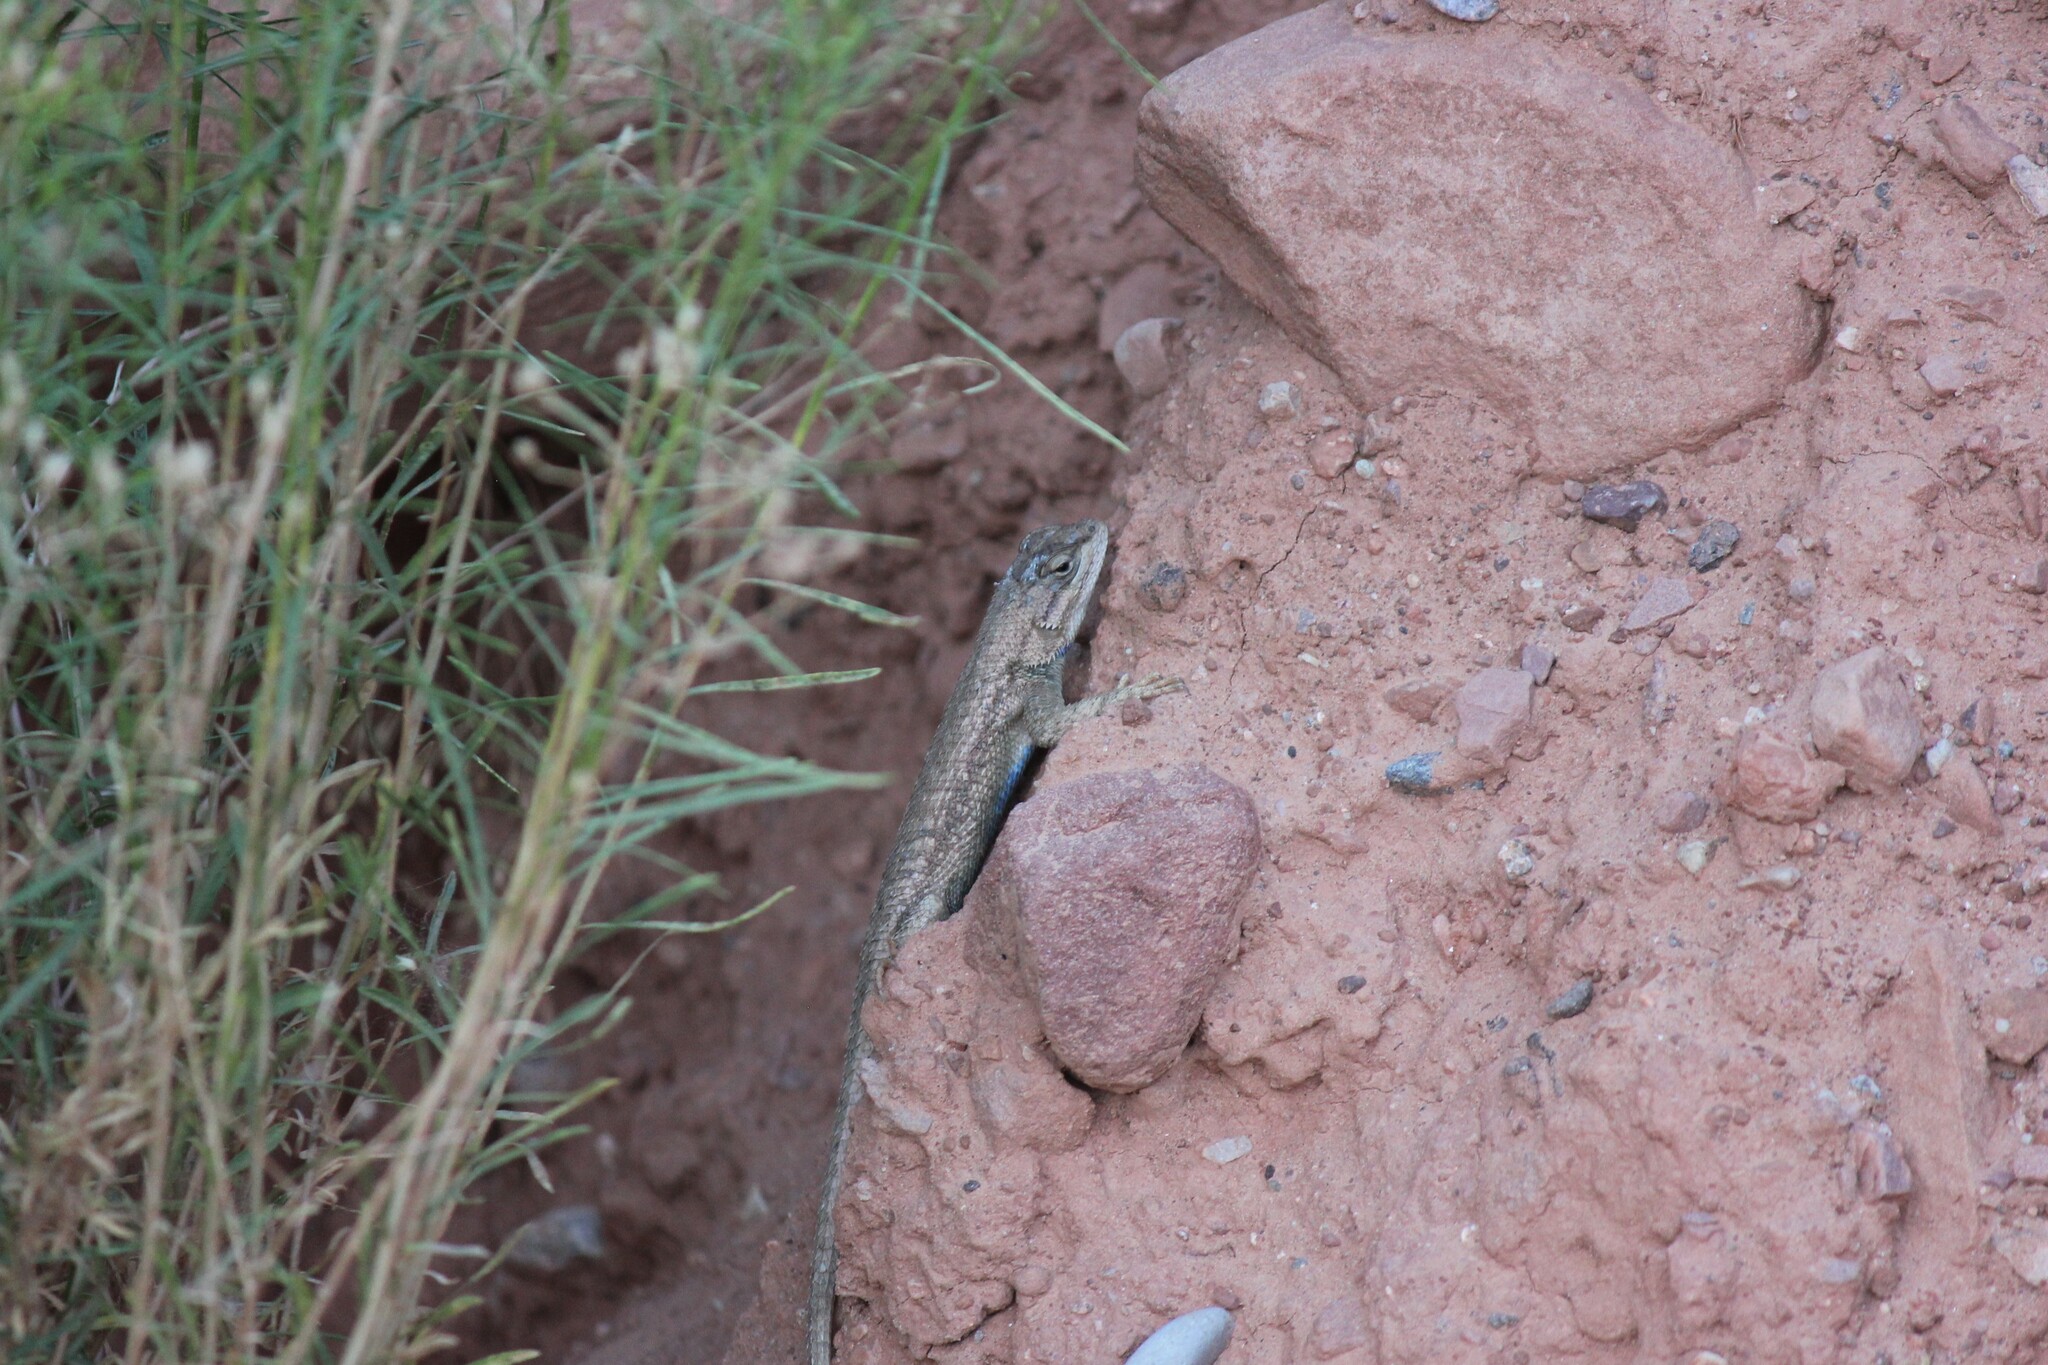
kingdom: Animalia
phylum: Chordata
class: Squamata
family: Phrynosomatidae
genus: Sceloporus
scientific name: Sceloporus tristichus
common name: Plateau fence lizard
